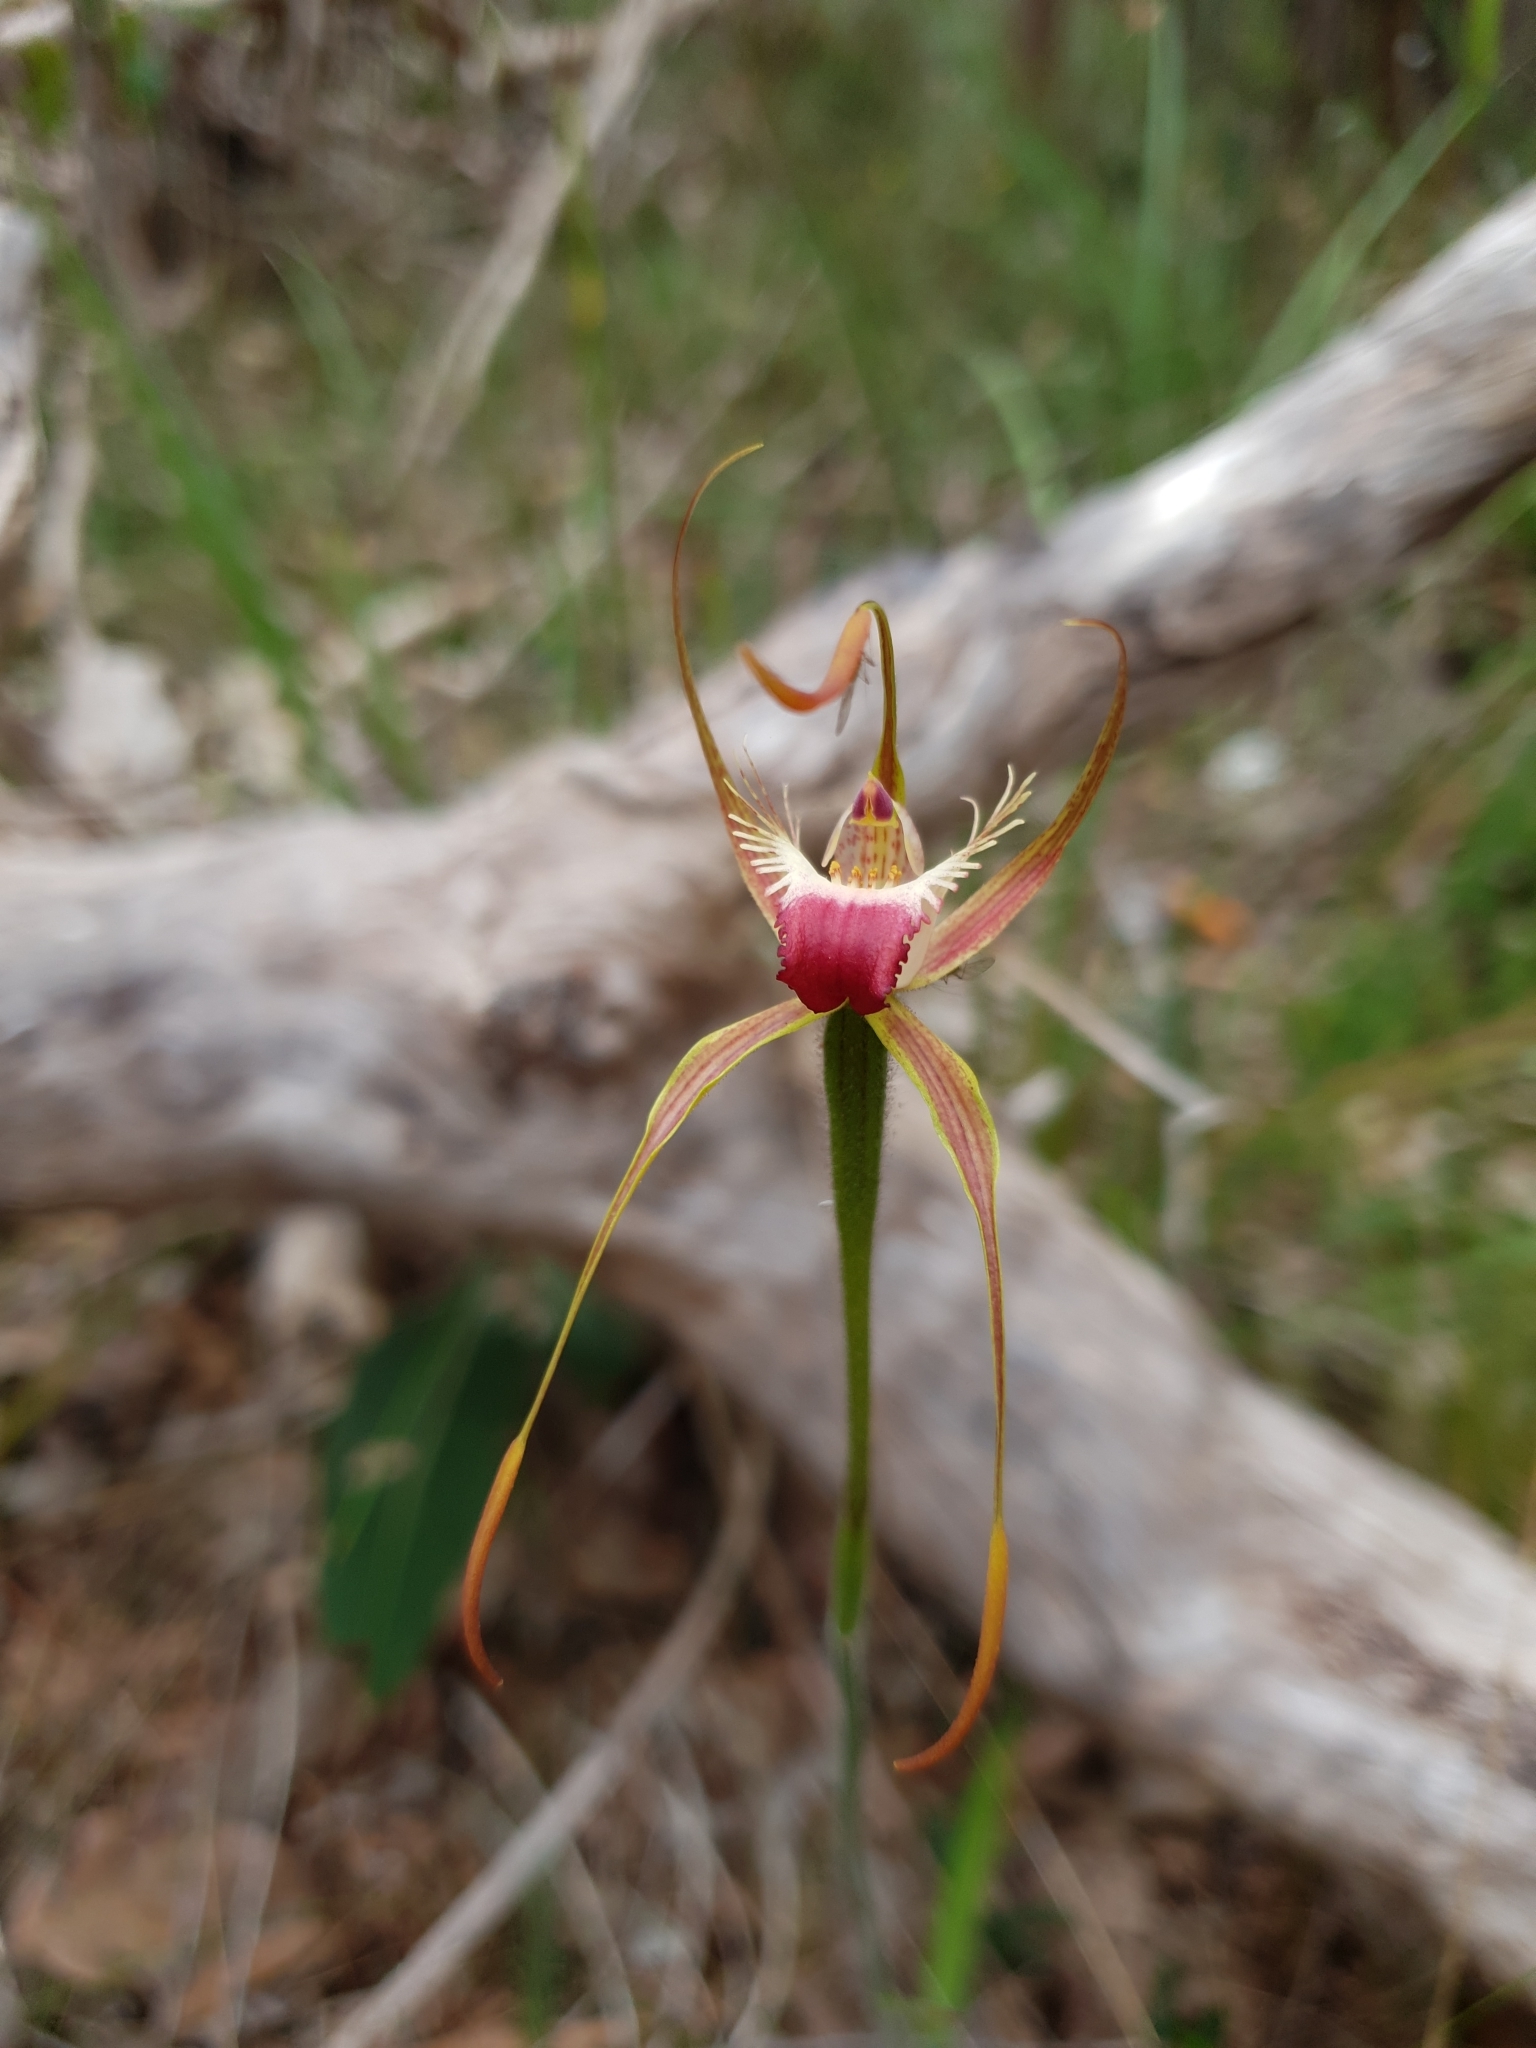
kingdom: Plantae
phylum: Tracheophyta
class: Liliopsida
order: Asparagales
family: Orchidaceae
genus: Caladenia
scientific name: Caladenia ferruginea
